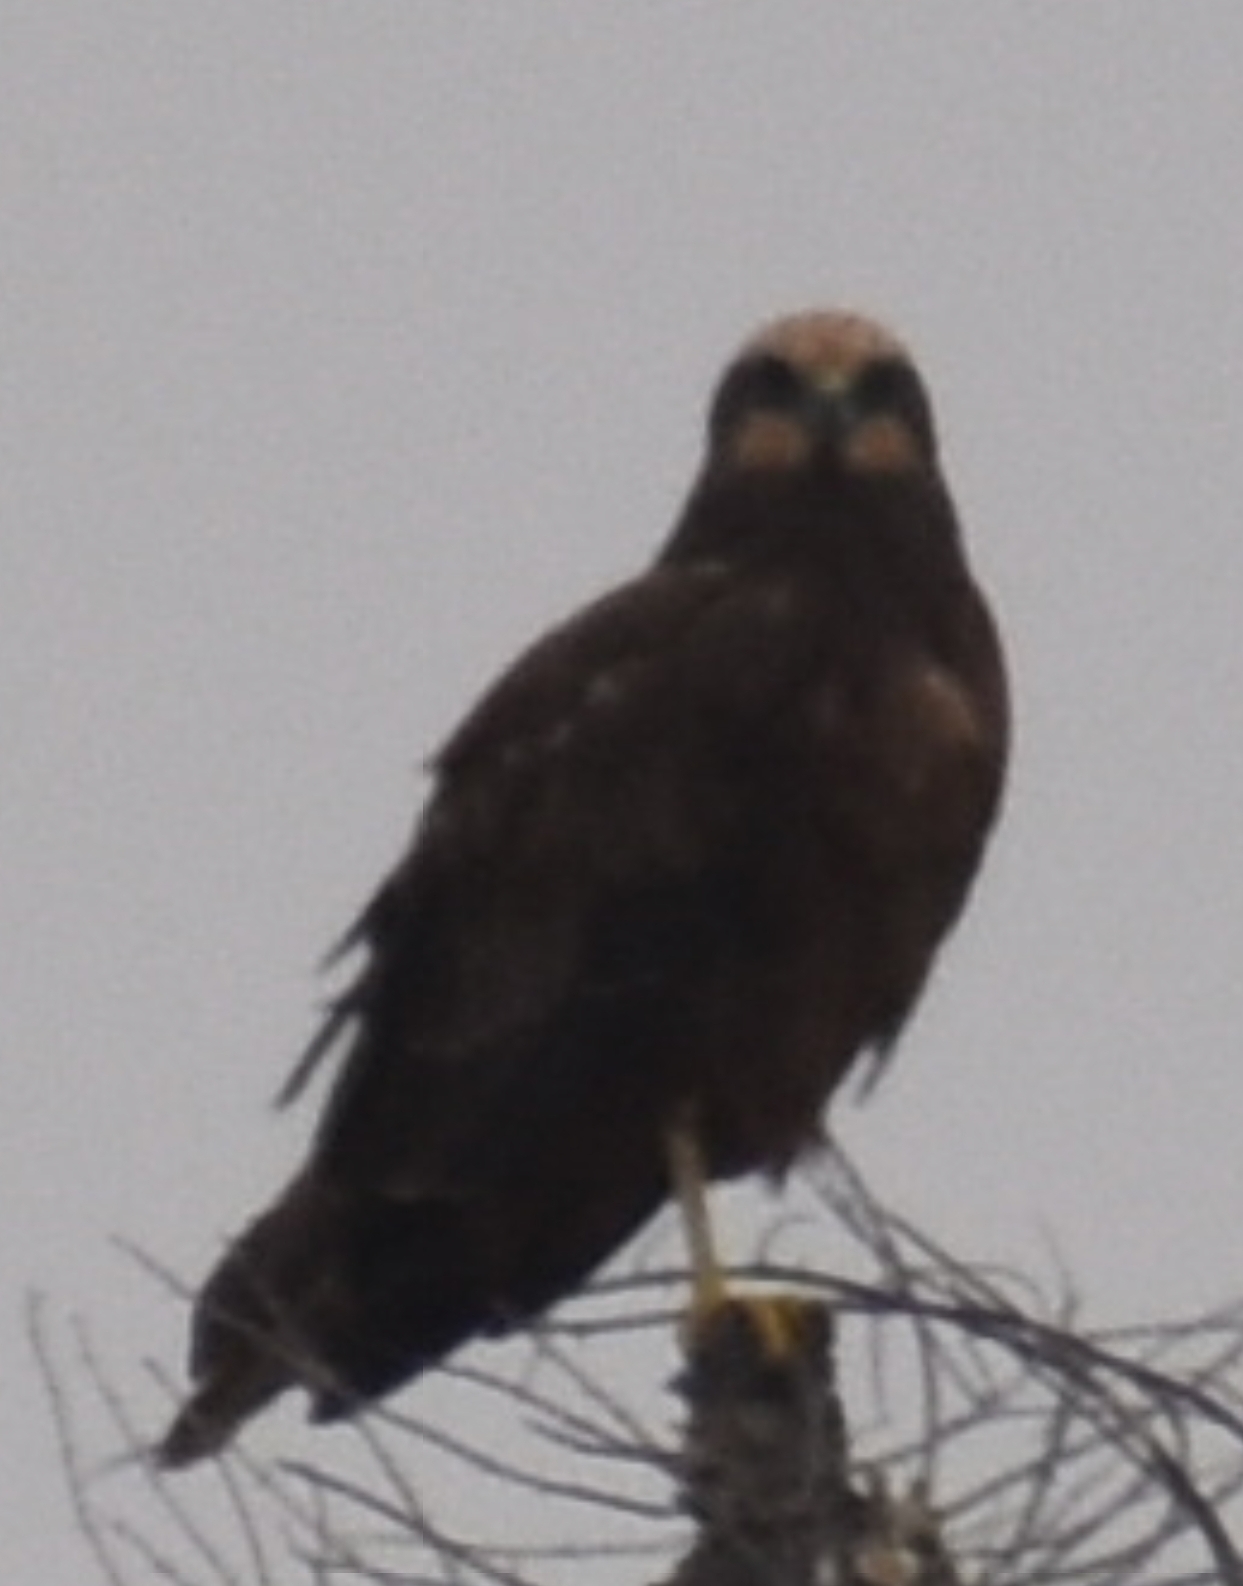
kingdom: Animalia
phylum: Chordata
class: Aves
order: Accipitriformes
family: Accipitridae
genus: Circus
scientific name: Circus aeruginosus
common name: Western marsh harrier
